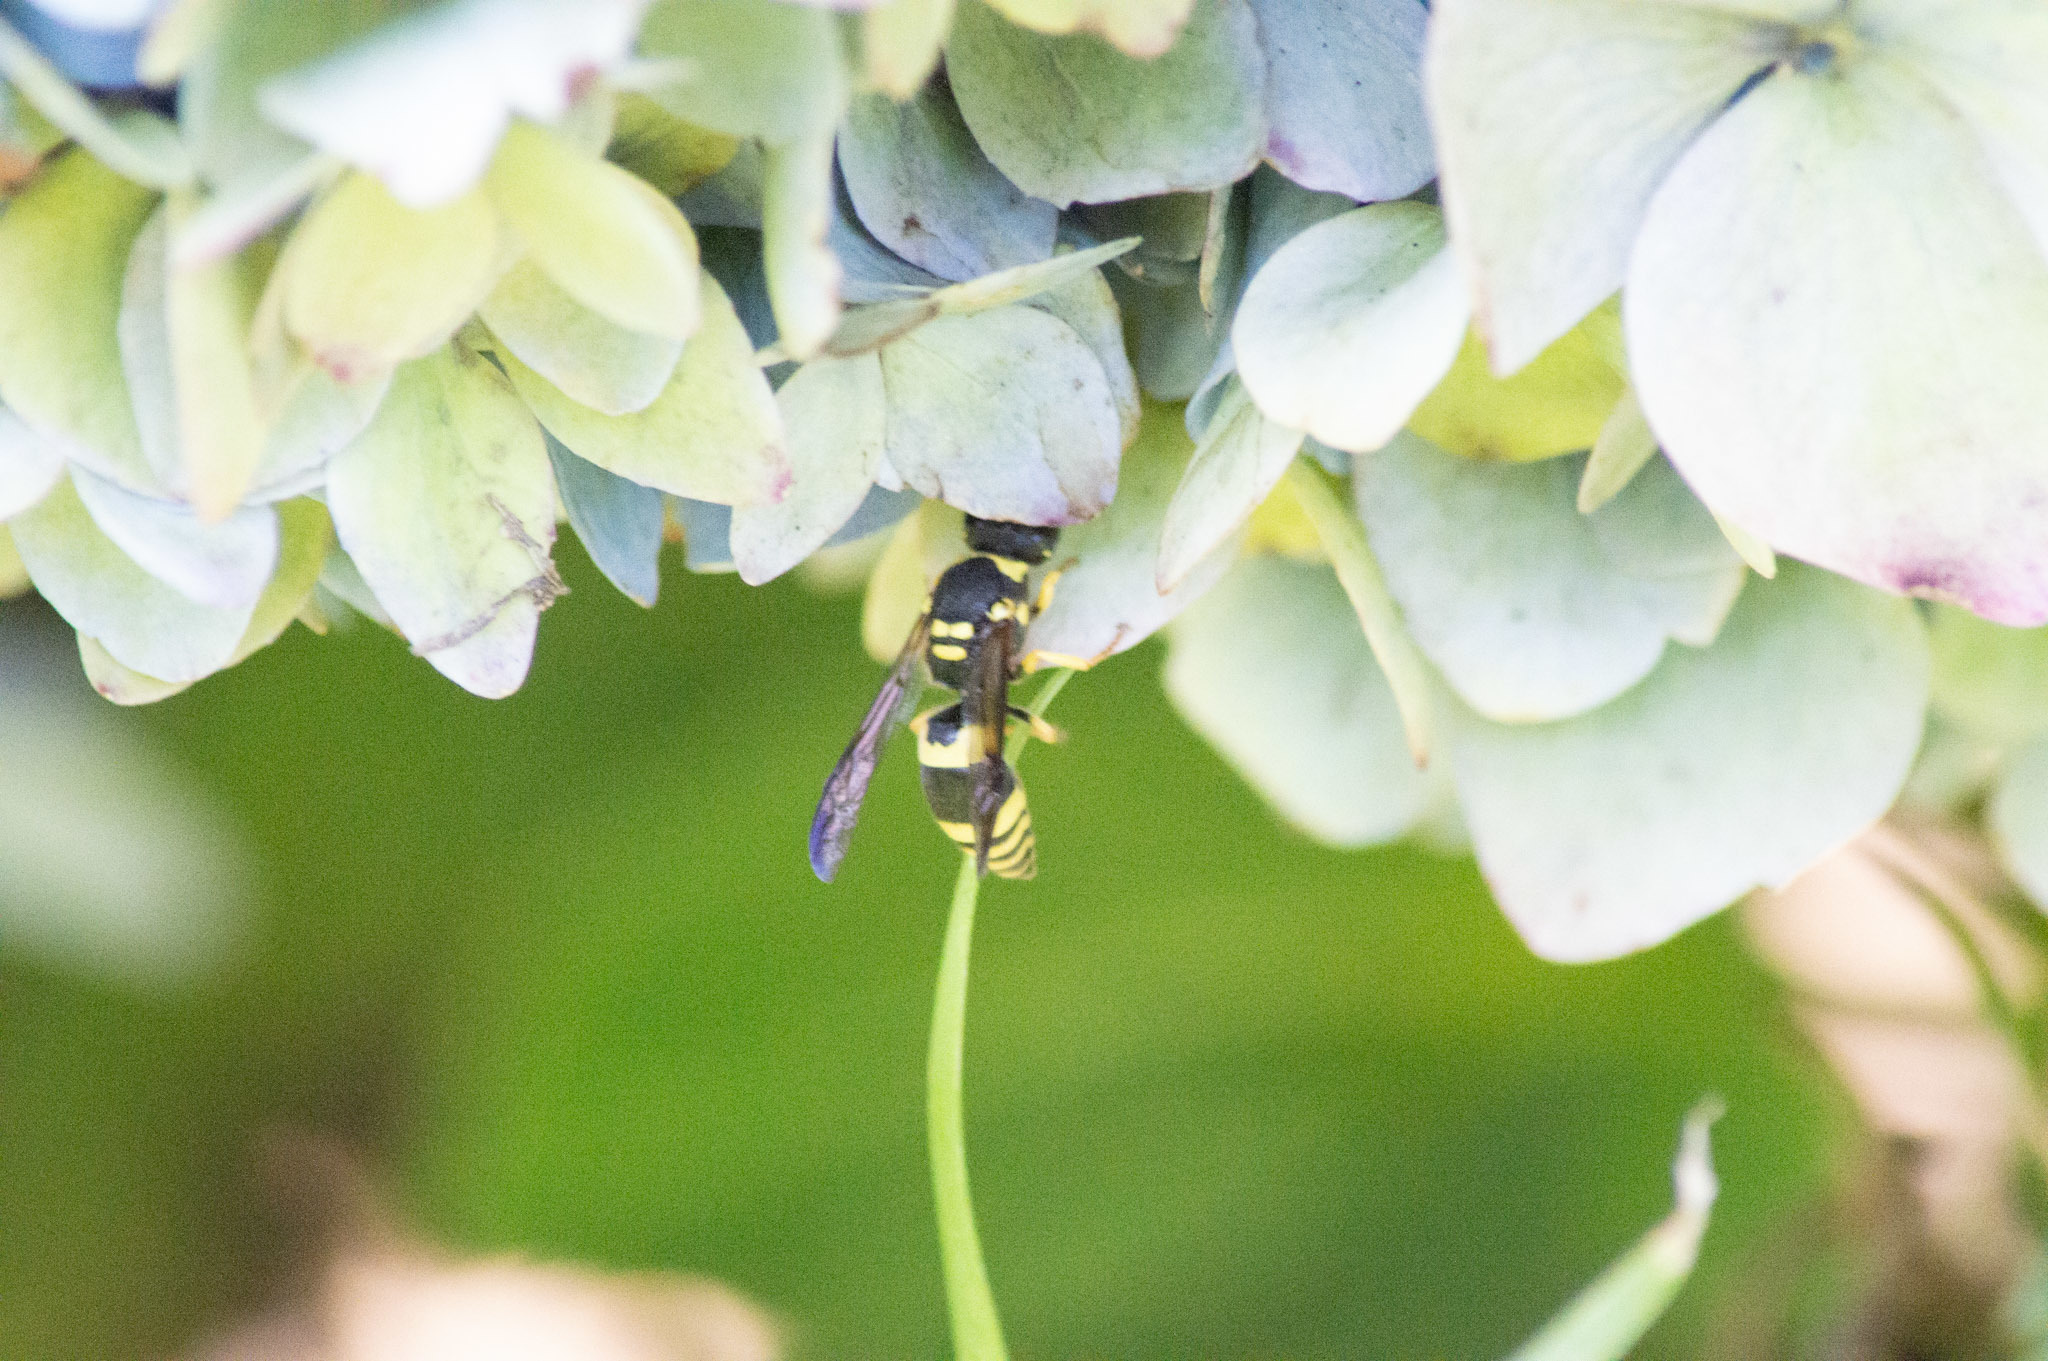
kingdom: Animalia
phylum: Arthropoda
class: Insecta
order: Hymenoptera
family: Vespidae
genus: Ancistrocerus
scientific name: Ancistrocerus gazella
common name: European tube wasp
